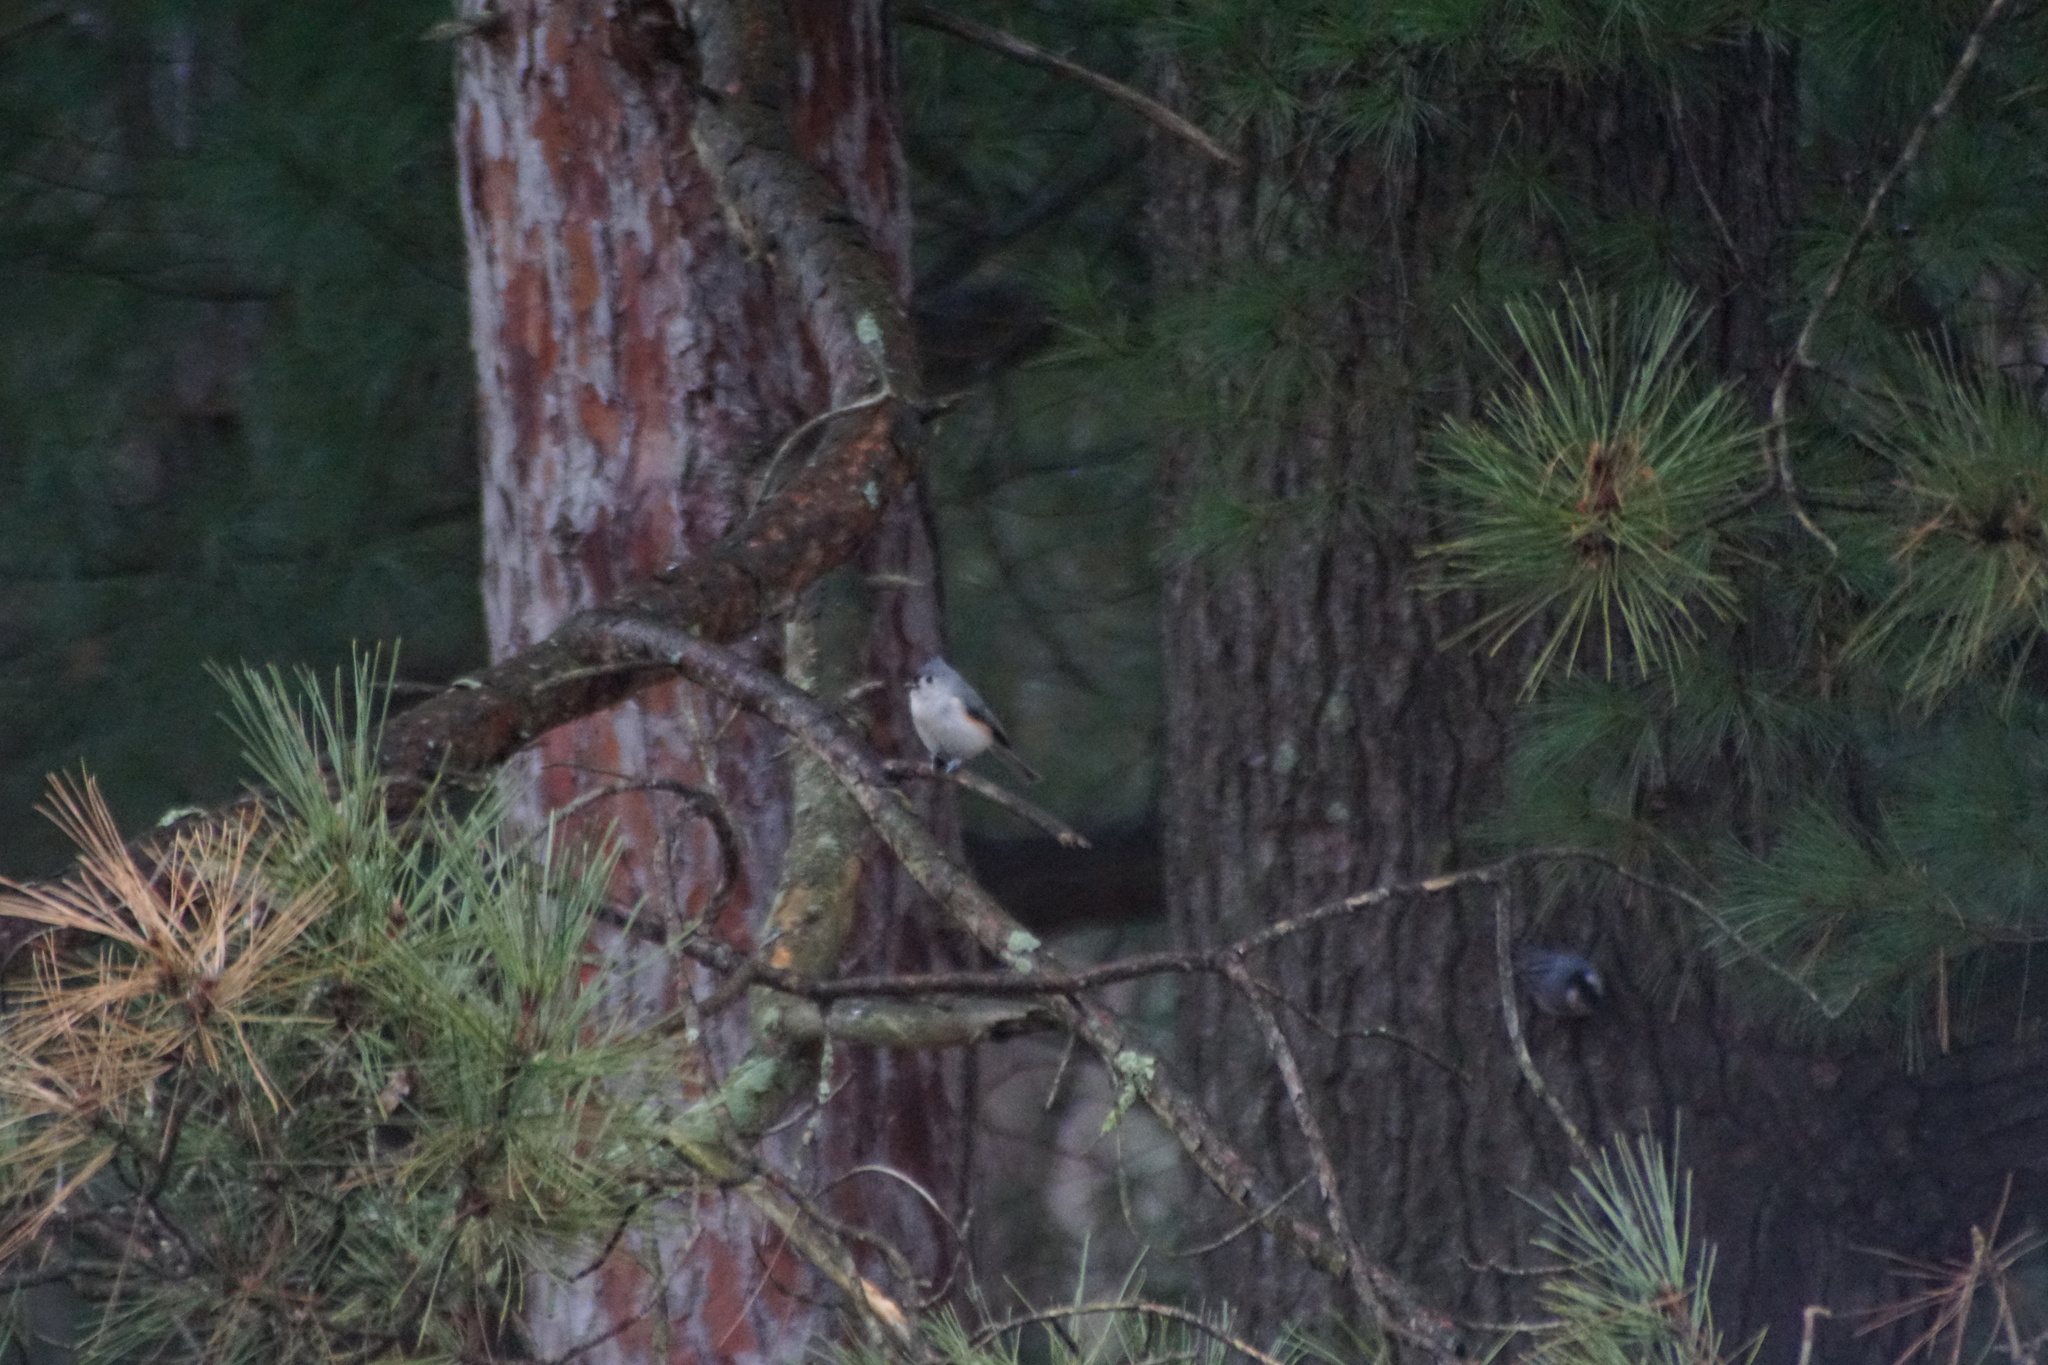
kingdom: Animalia
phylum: Chordata
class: Aves
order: Passeriformes
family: Paridae
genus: Baeolophus
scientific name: Baeolophus bicolor
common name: Tufted titmouse
